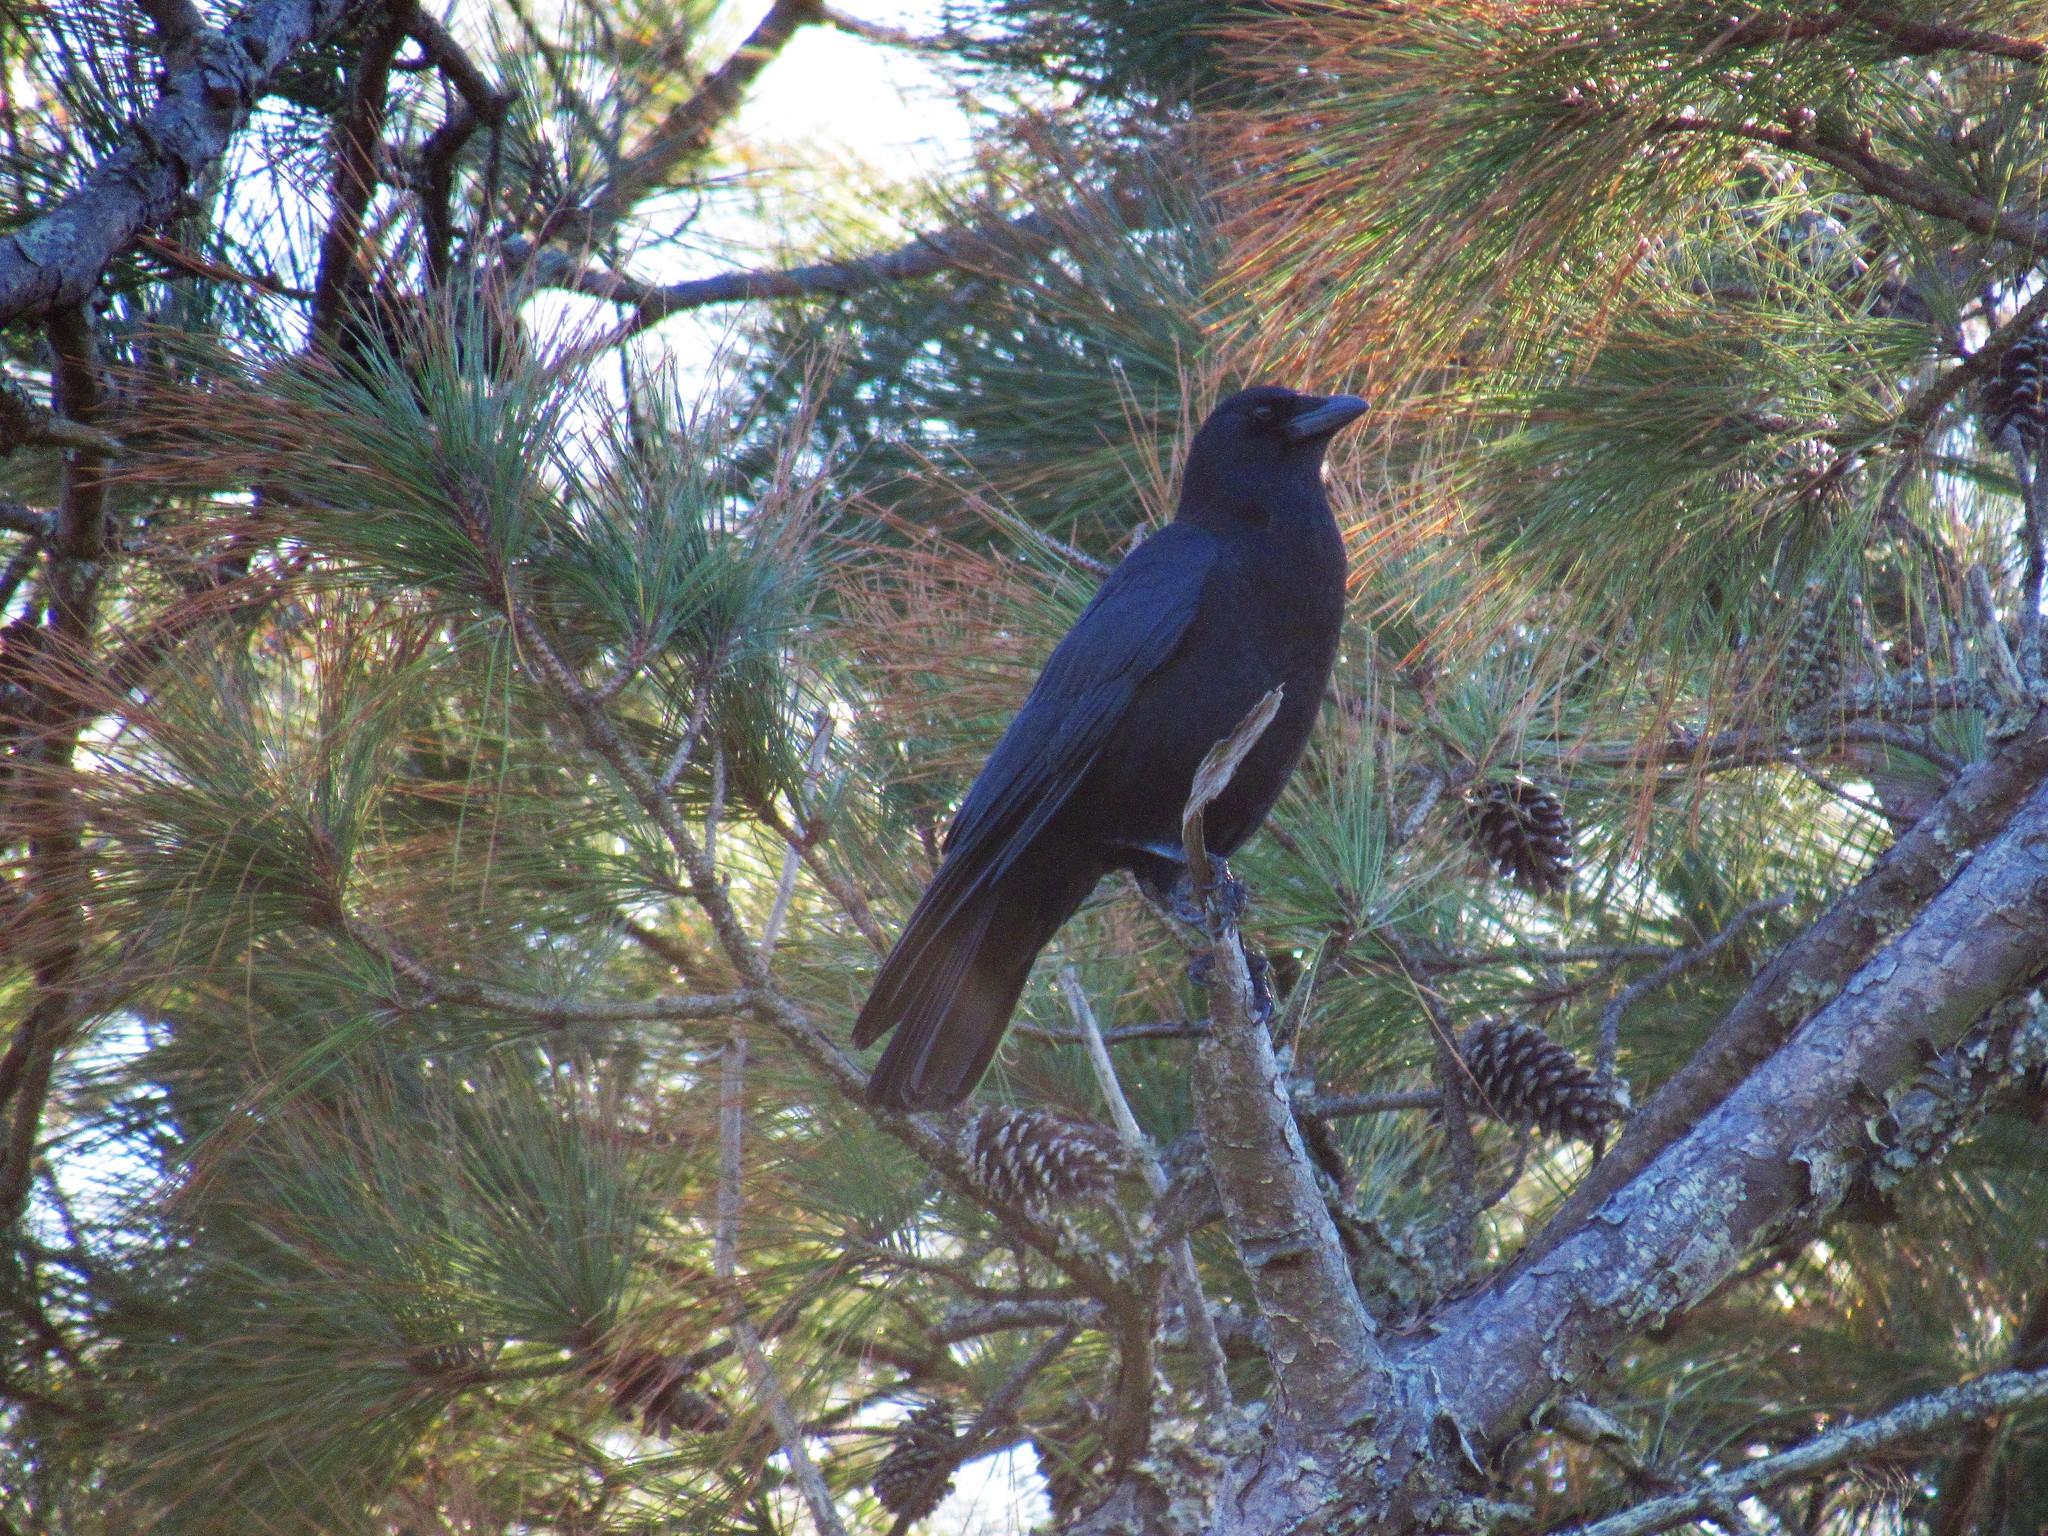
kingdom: Animalia
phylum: Chordata
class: Aves
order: Passeriformes
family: Corvidae
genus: Corvus
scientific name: Corvus
